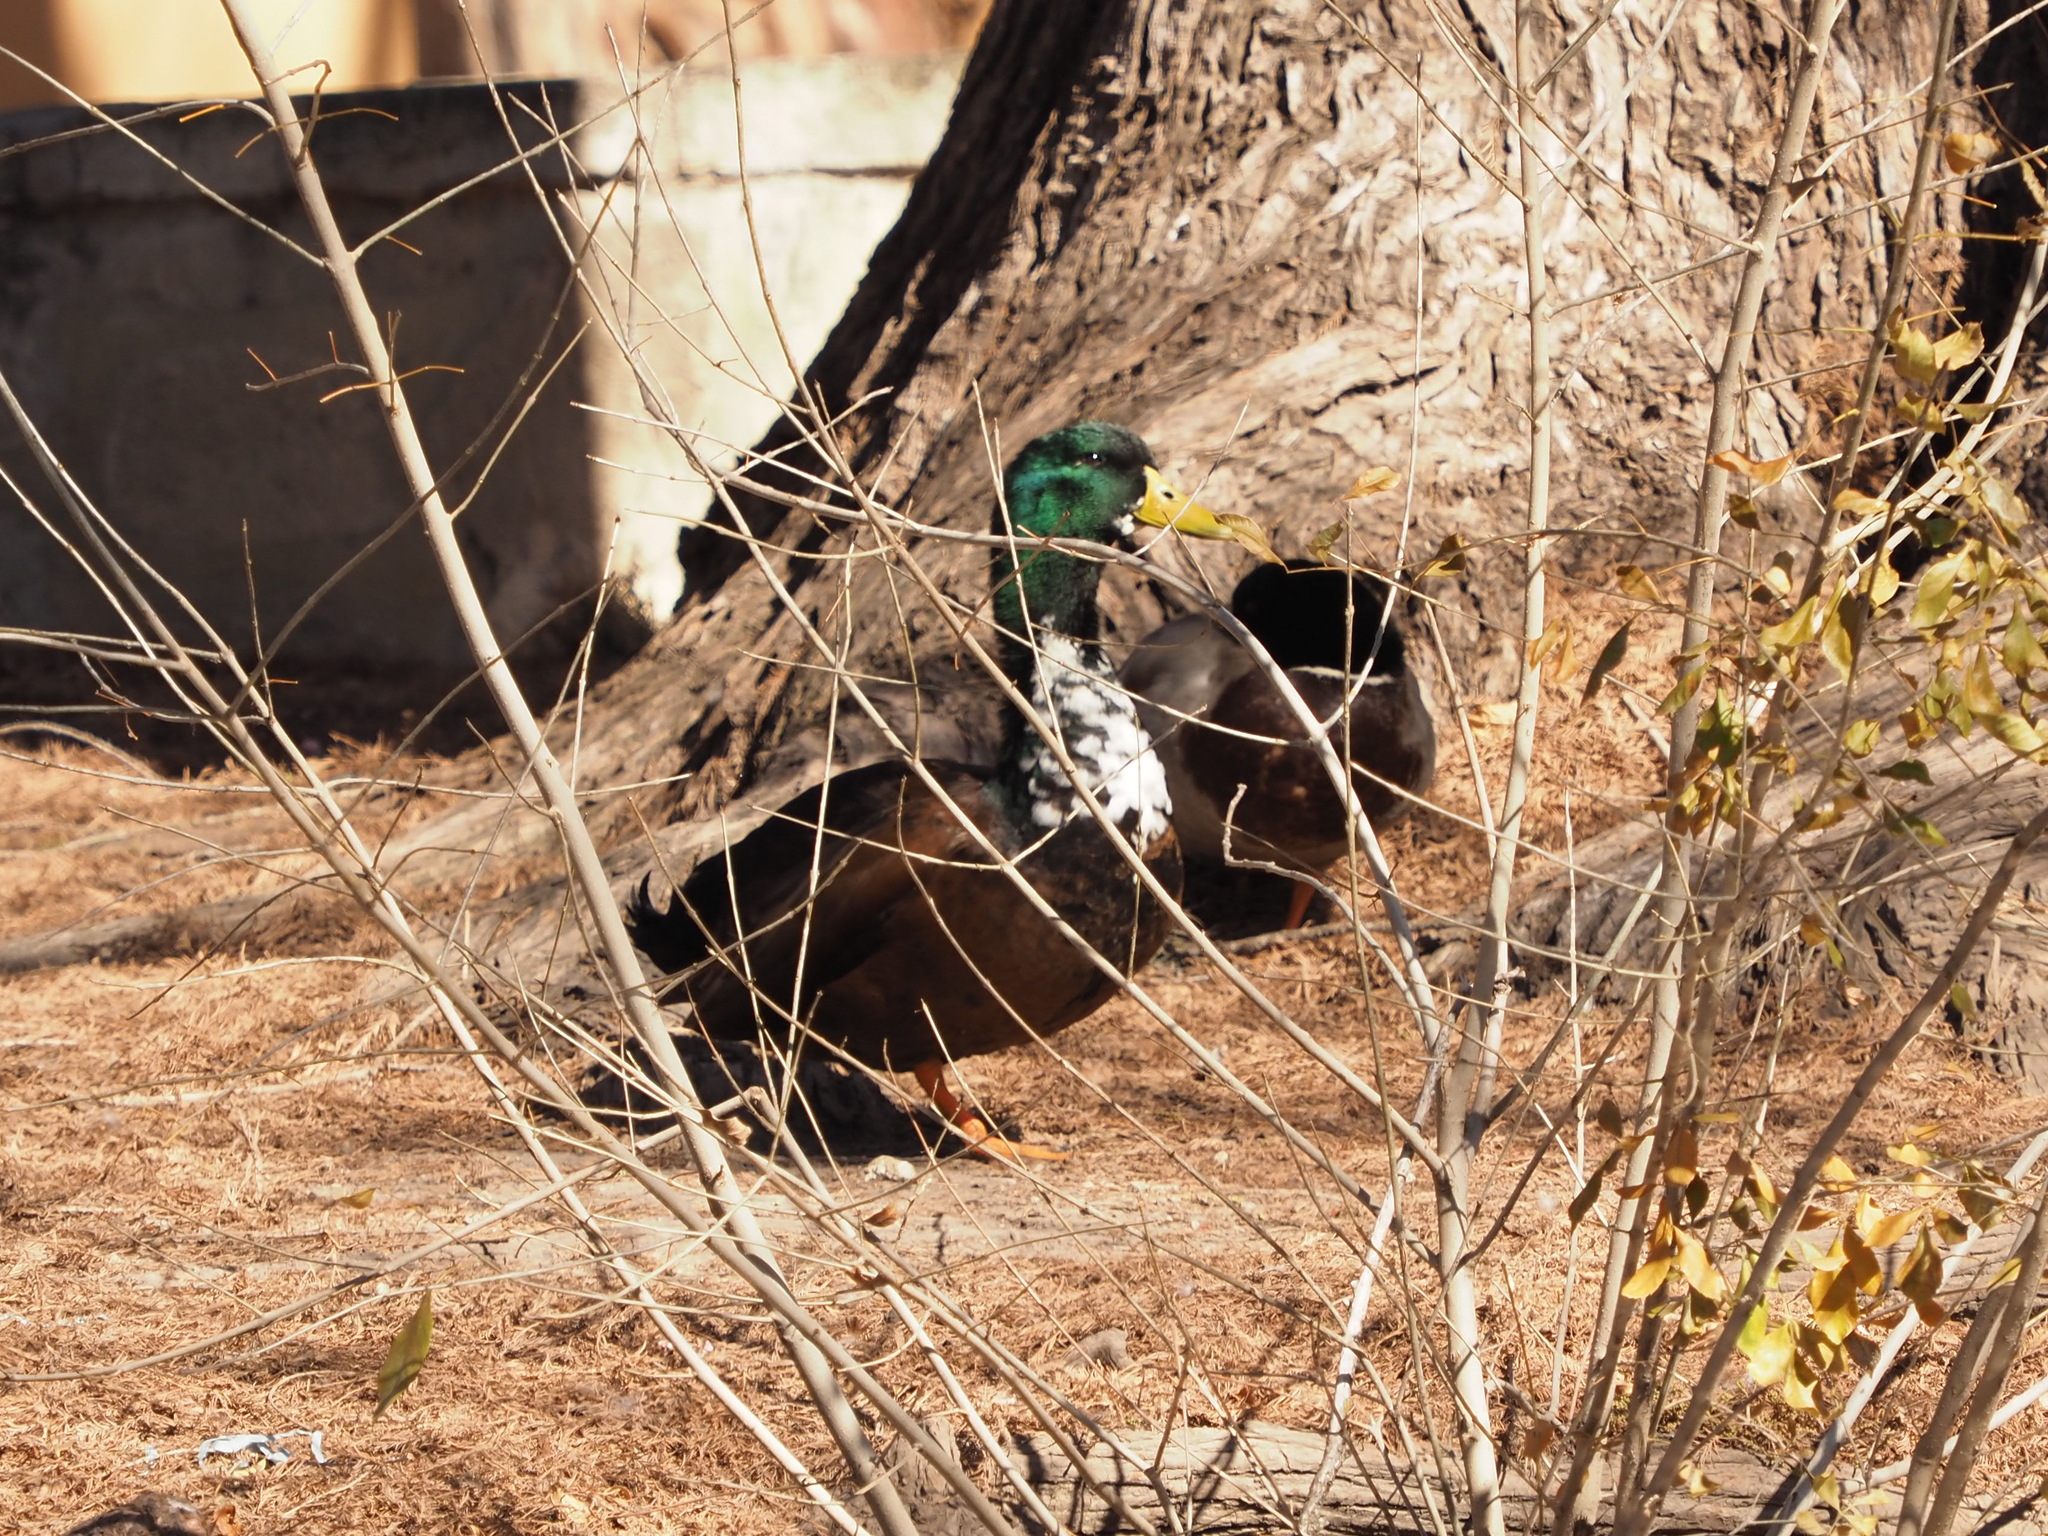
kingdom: Animalia
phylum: Chordata
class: Aves
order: Anseriformes
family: Anatidae
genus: Anas
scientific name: Anas platyrhynchos
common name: Mallard
